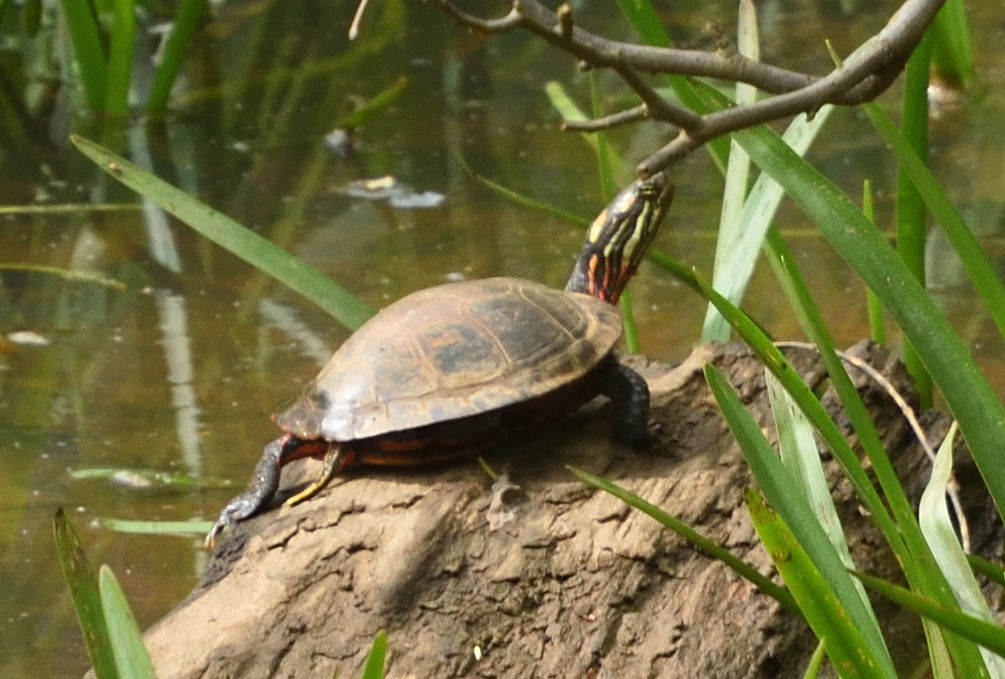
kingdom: Animalia
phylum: Chordata
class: Testudines
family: Emydidae
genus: Chrysemys
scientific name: Chrysemys picta
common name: Painted turtle
